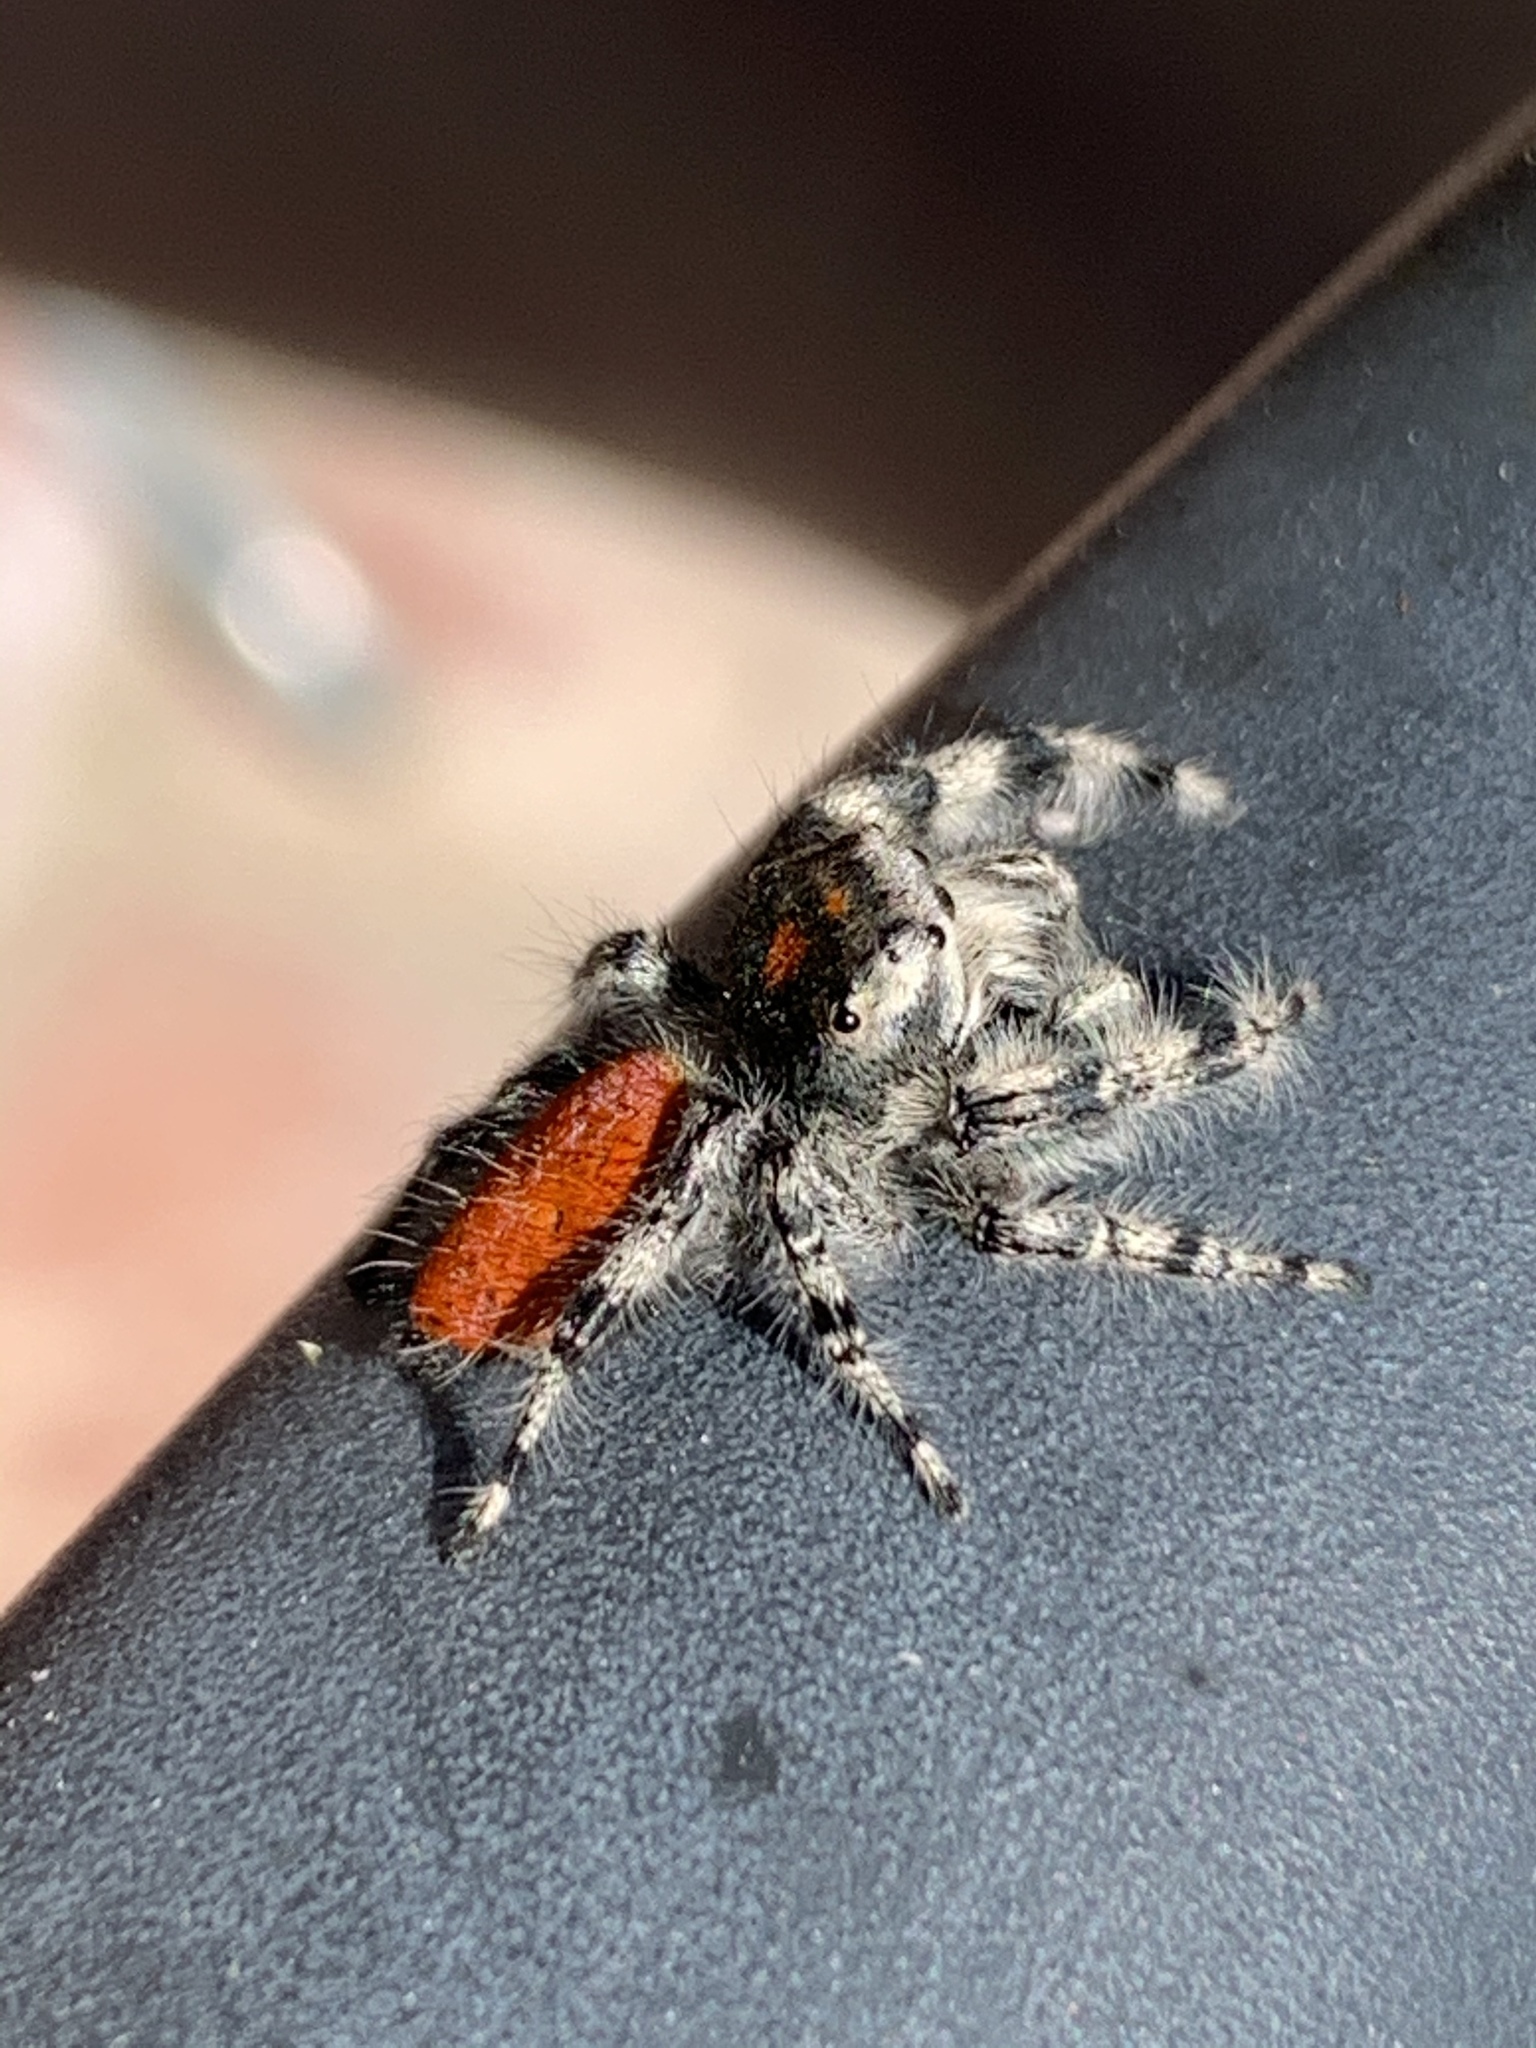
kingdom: Animalia
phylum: Arthropoda
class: Arachnida
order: Araneae
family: Salticidae
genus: Phidippus
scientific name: Phidippus adumbratus
